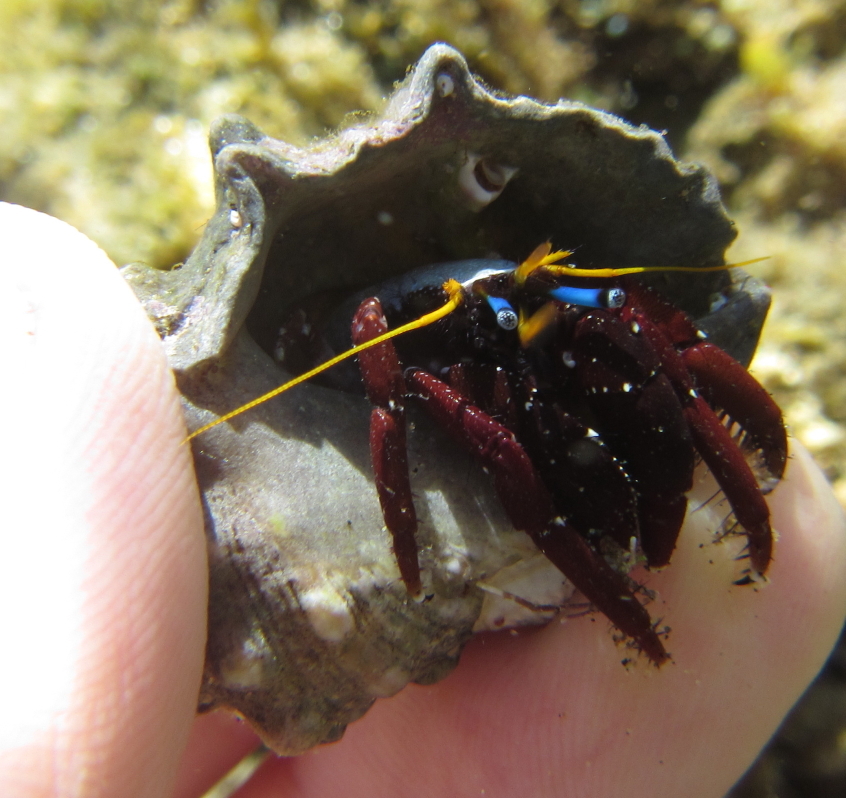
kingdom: Animalia
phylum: Arthropoda
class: Malacostraca
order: Decapoda
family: Diogenidae
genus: Calcinus
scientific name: Calcinus morgani
